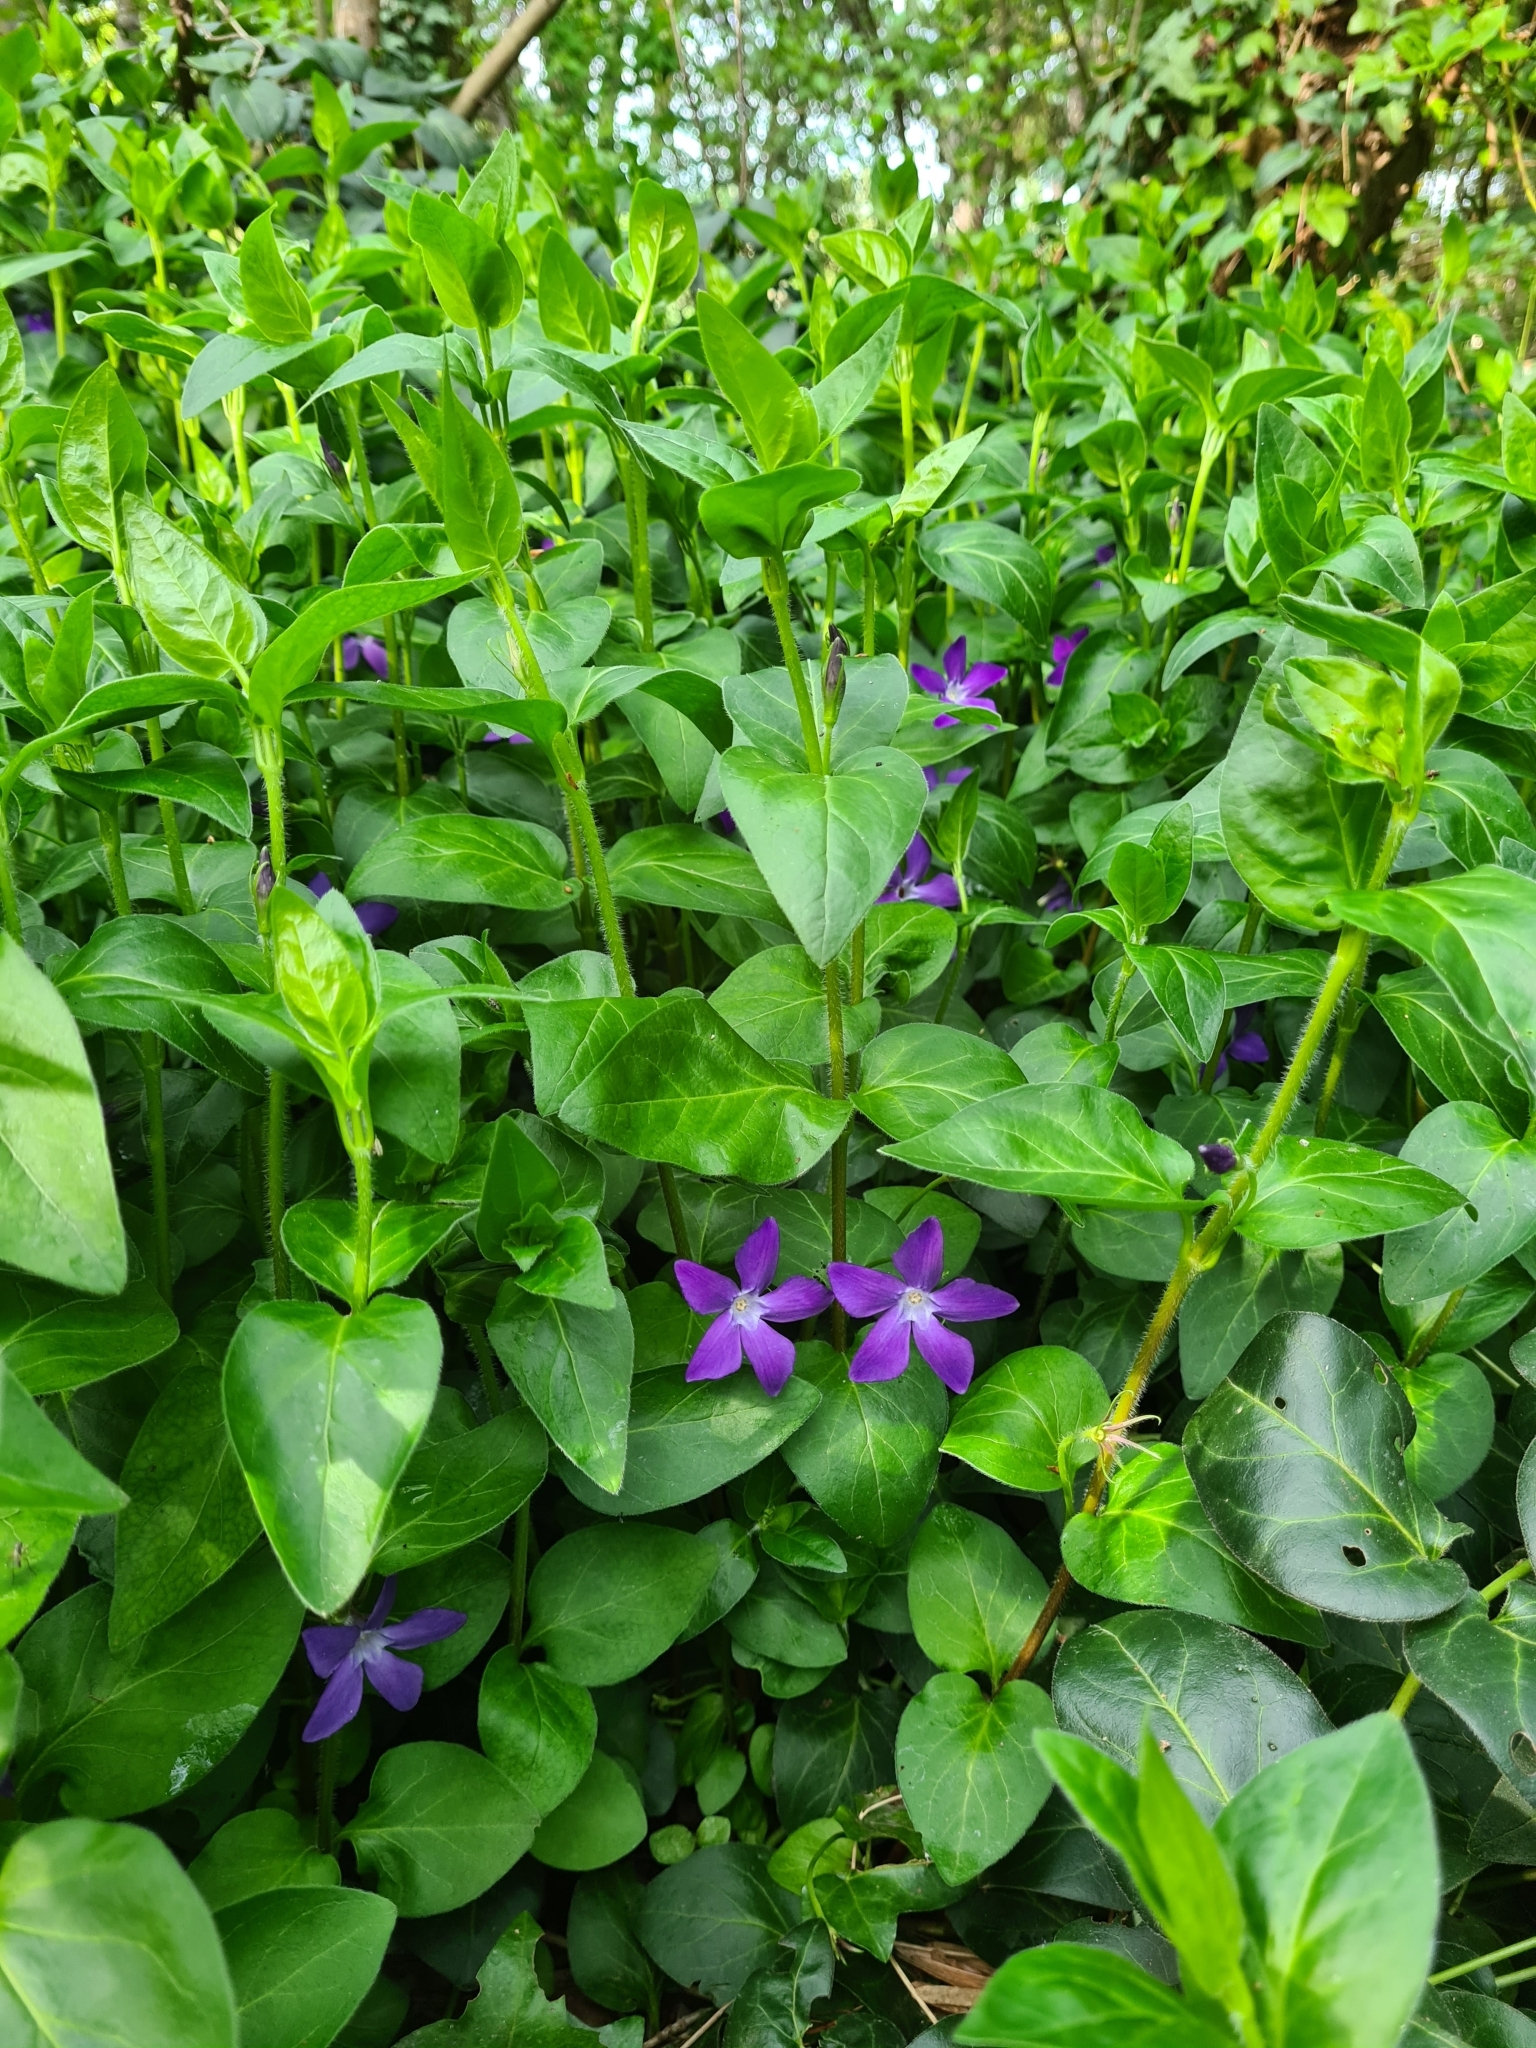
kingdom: Plantae
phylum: Tracheophyta
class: Magnoliopsida
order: Gentianales
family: Apocynaceae
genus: Vinca
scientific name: Vinca major
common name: Greater periwinkle
